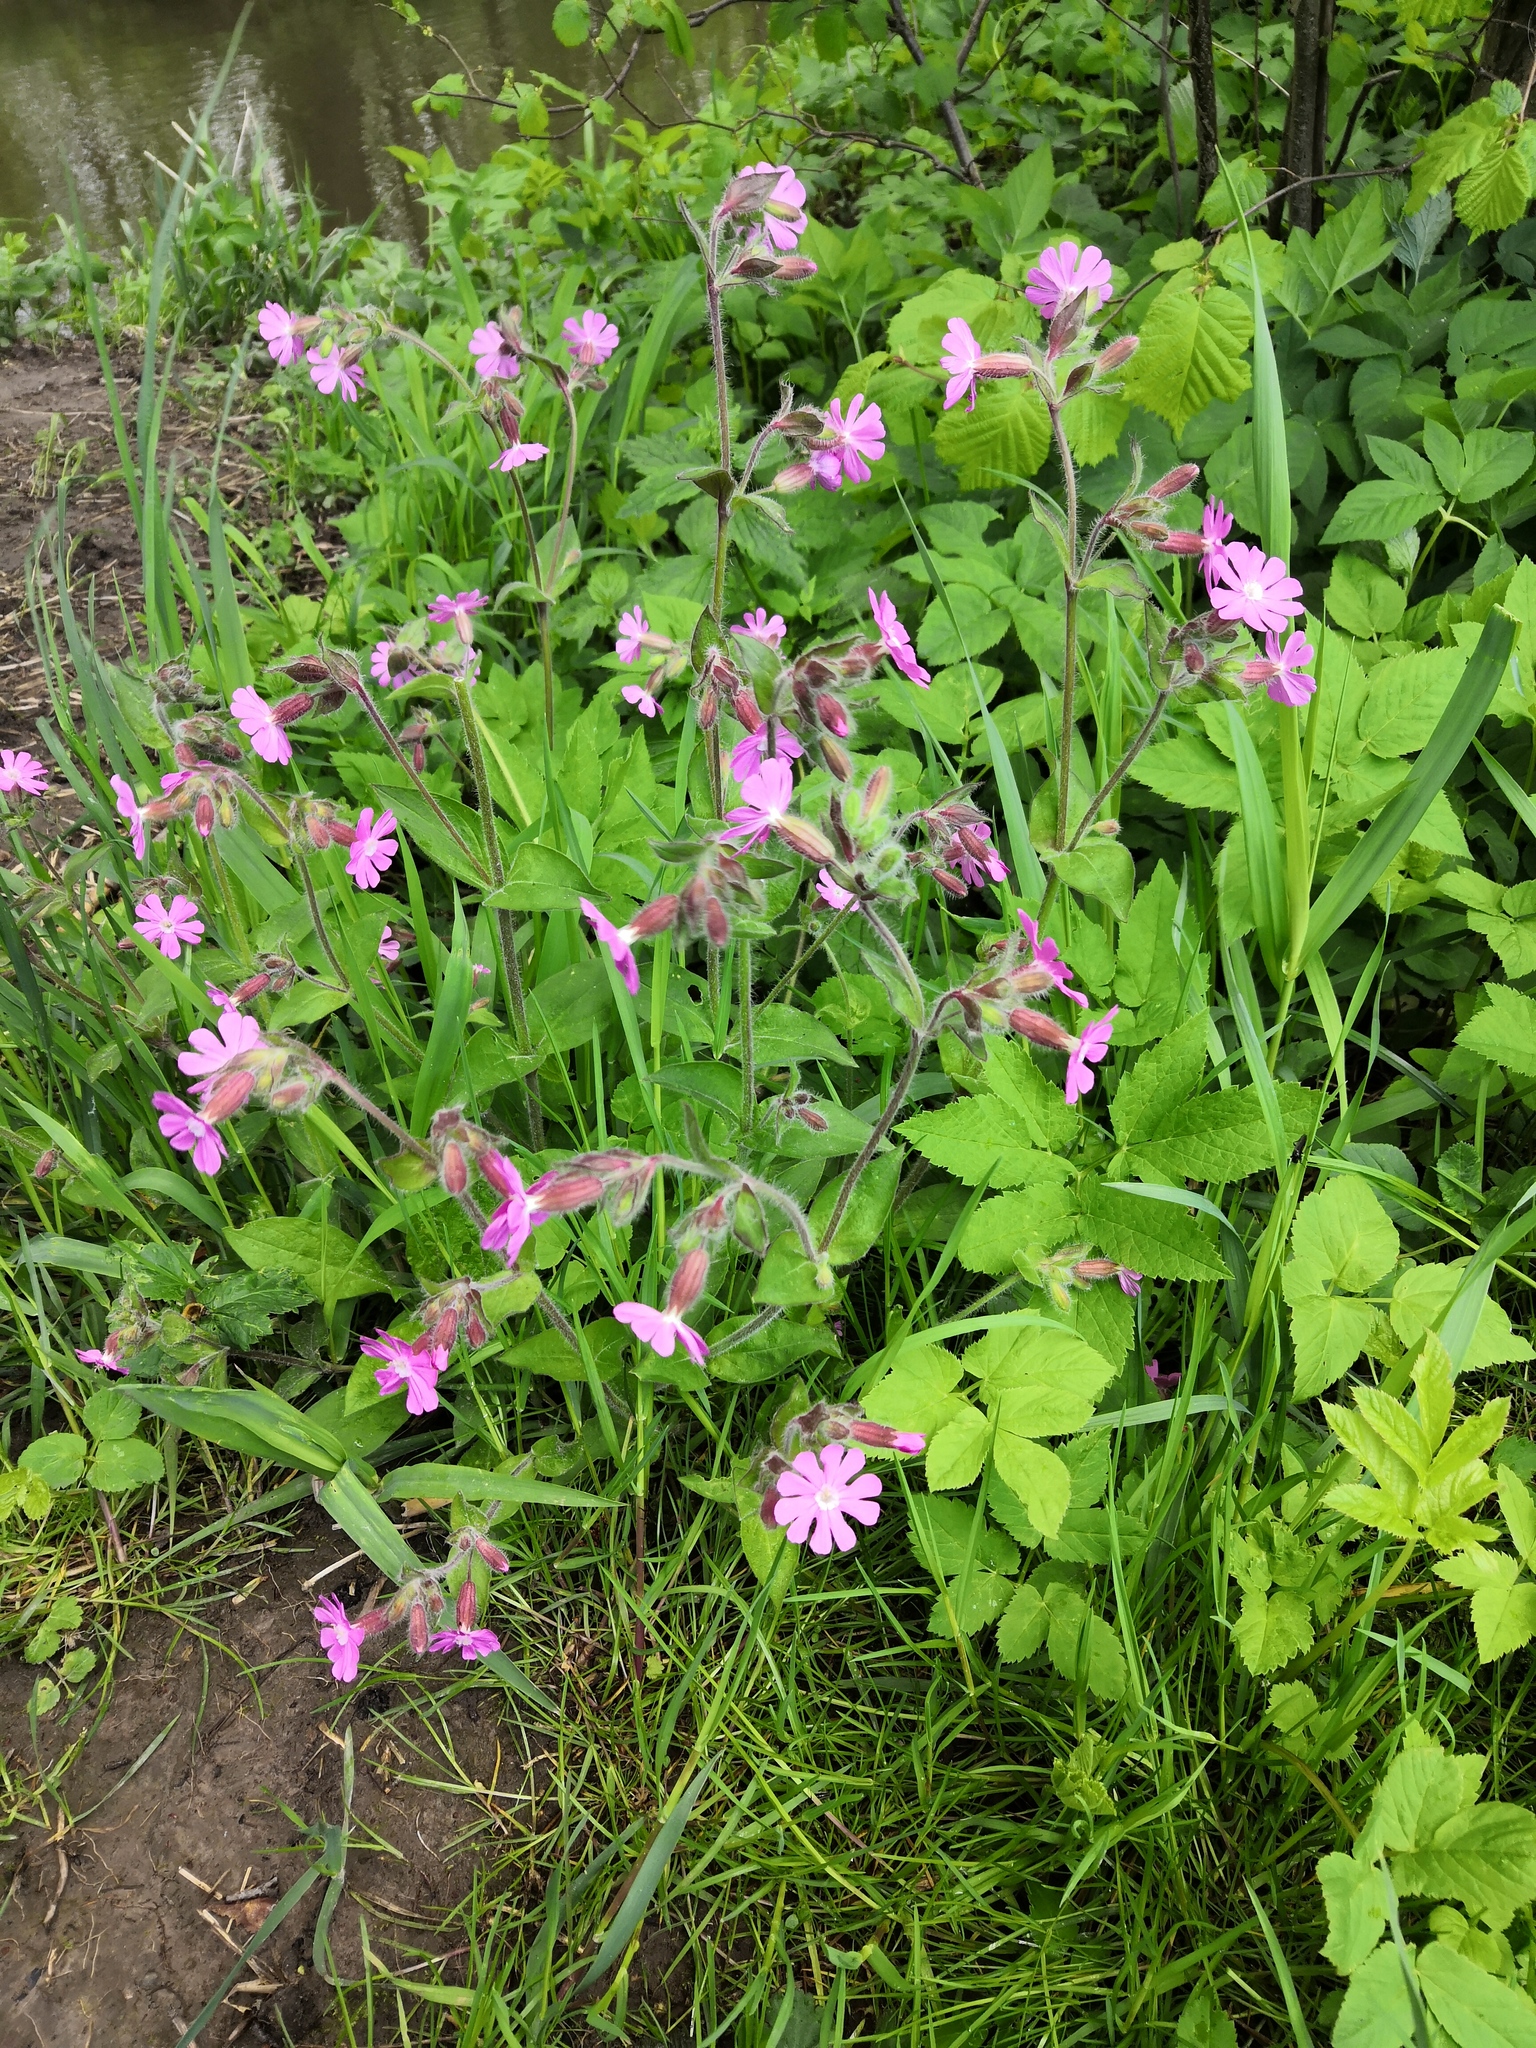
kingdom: Plantae
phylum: Tracheophyta
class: Magnoliopsida
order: Caryophyllales
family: Caryophyllaceae
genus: Silene
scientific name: Silene dioica
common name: Red campion
